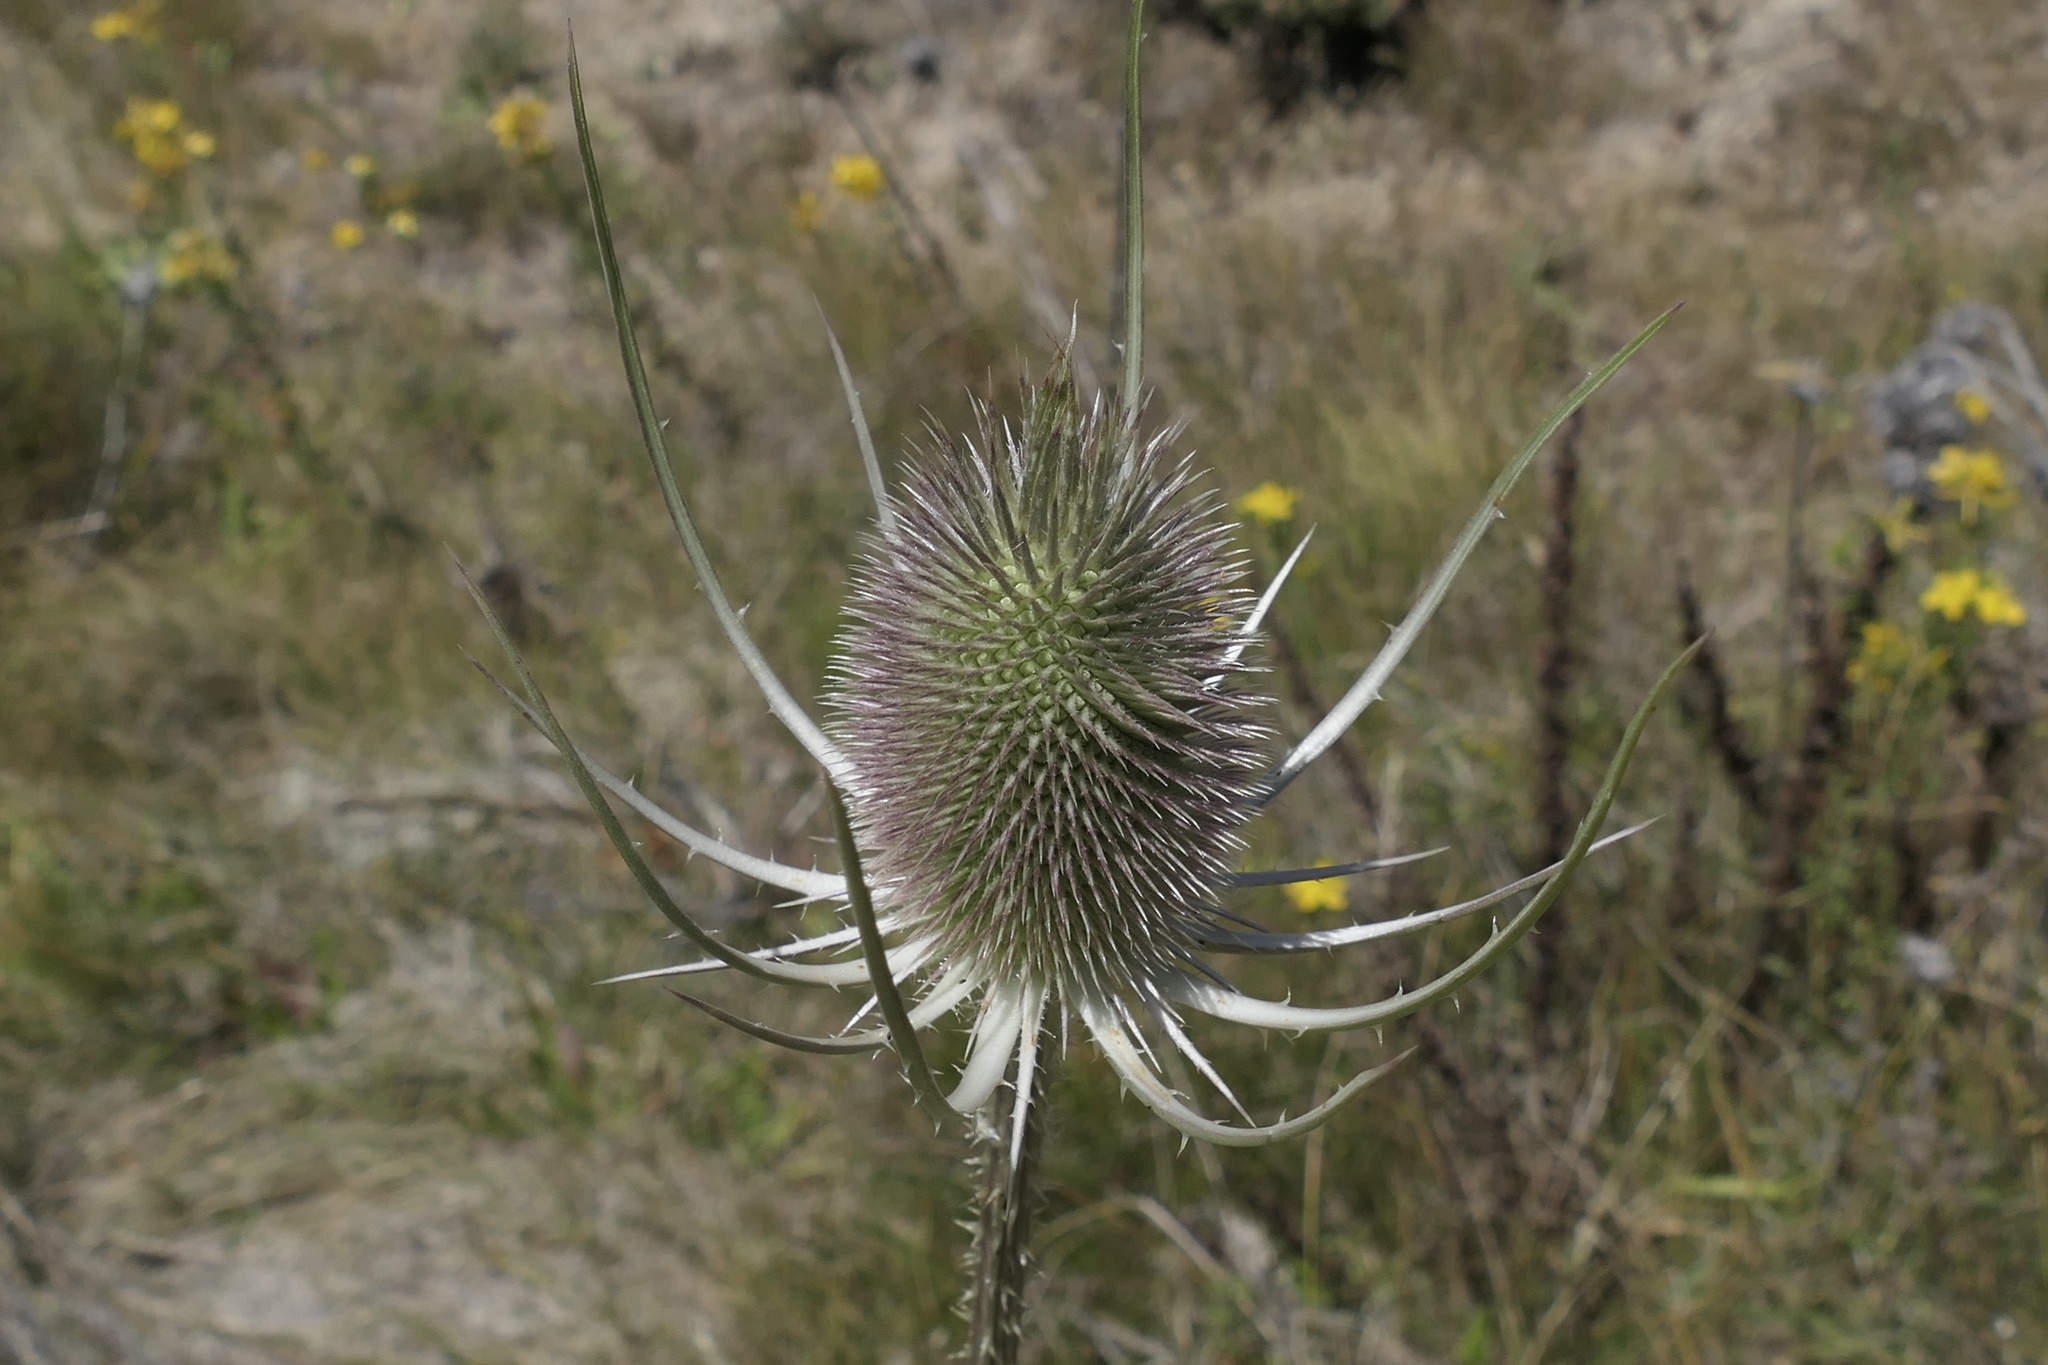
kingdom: Plantae
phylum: Tracheophyta
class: Magnoliopsida
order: Dipsacales
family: Caprifoliaceae
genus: Dipsacus
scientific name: Dipsacus fullonum
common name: Teasel
